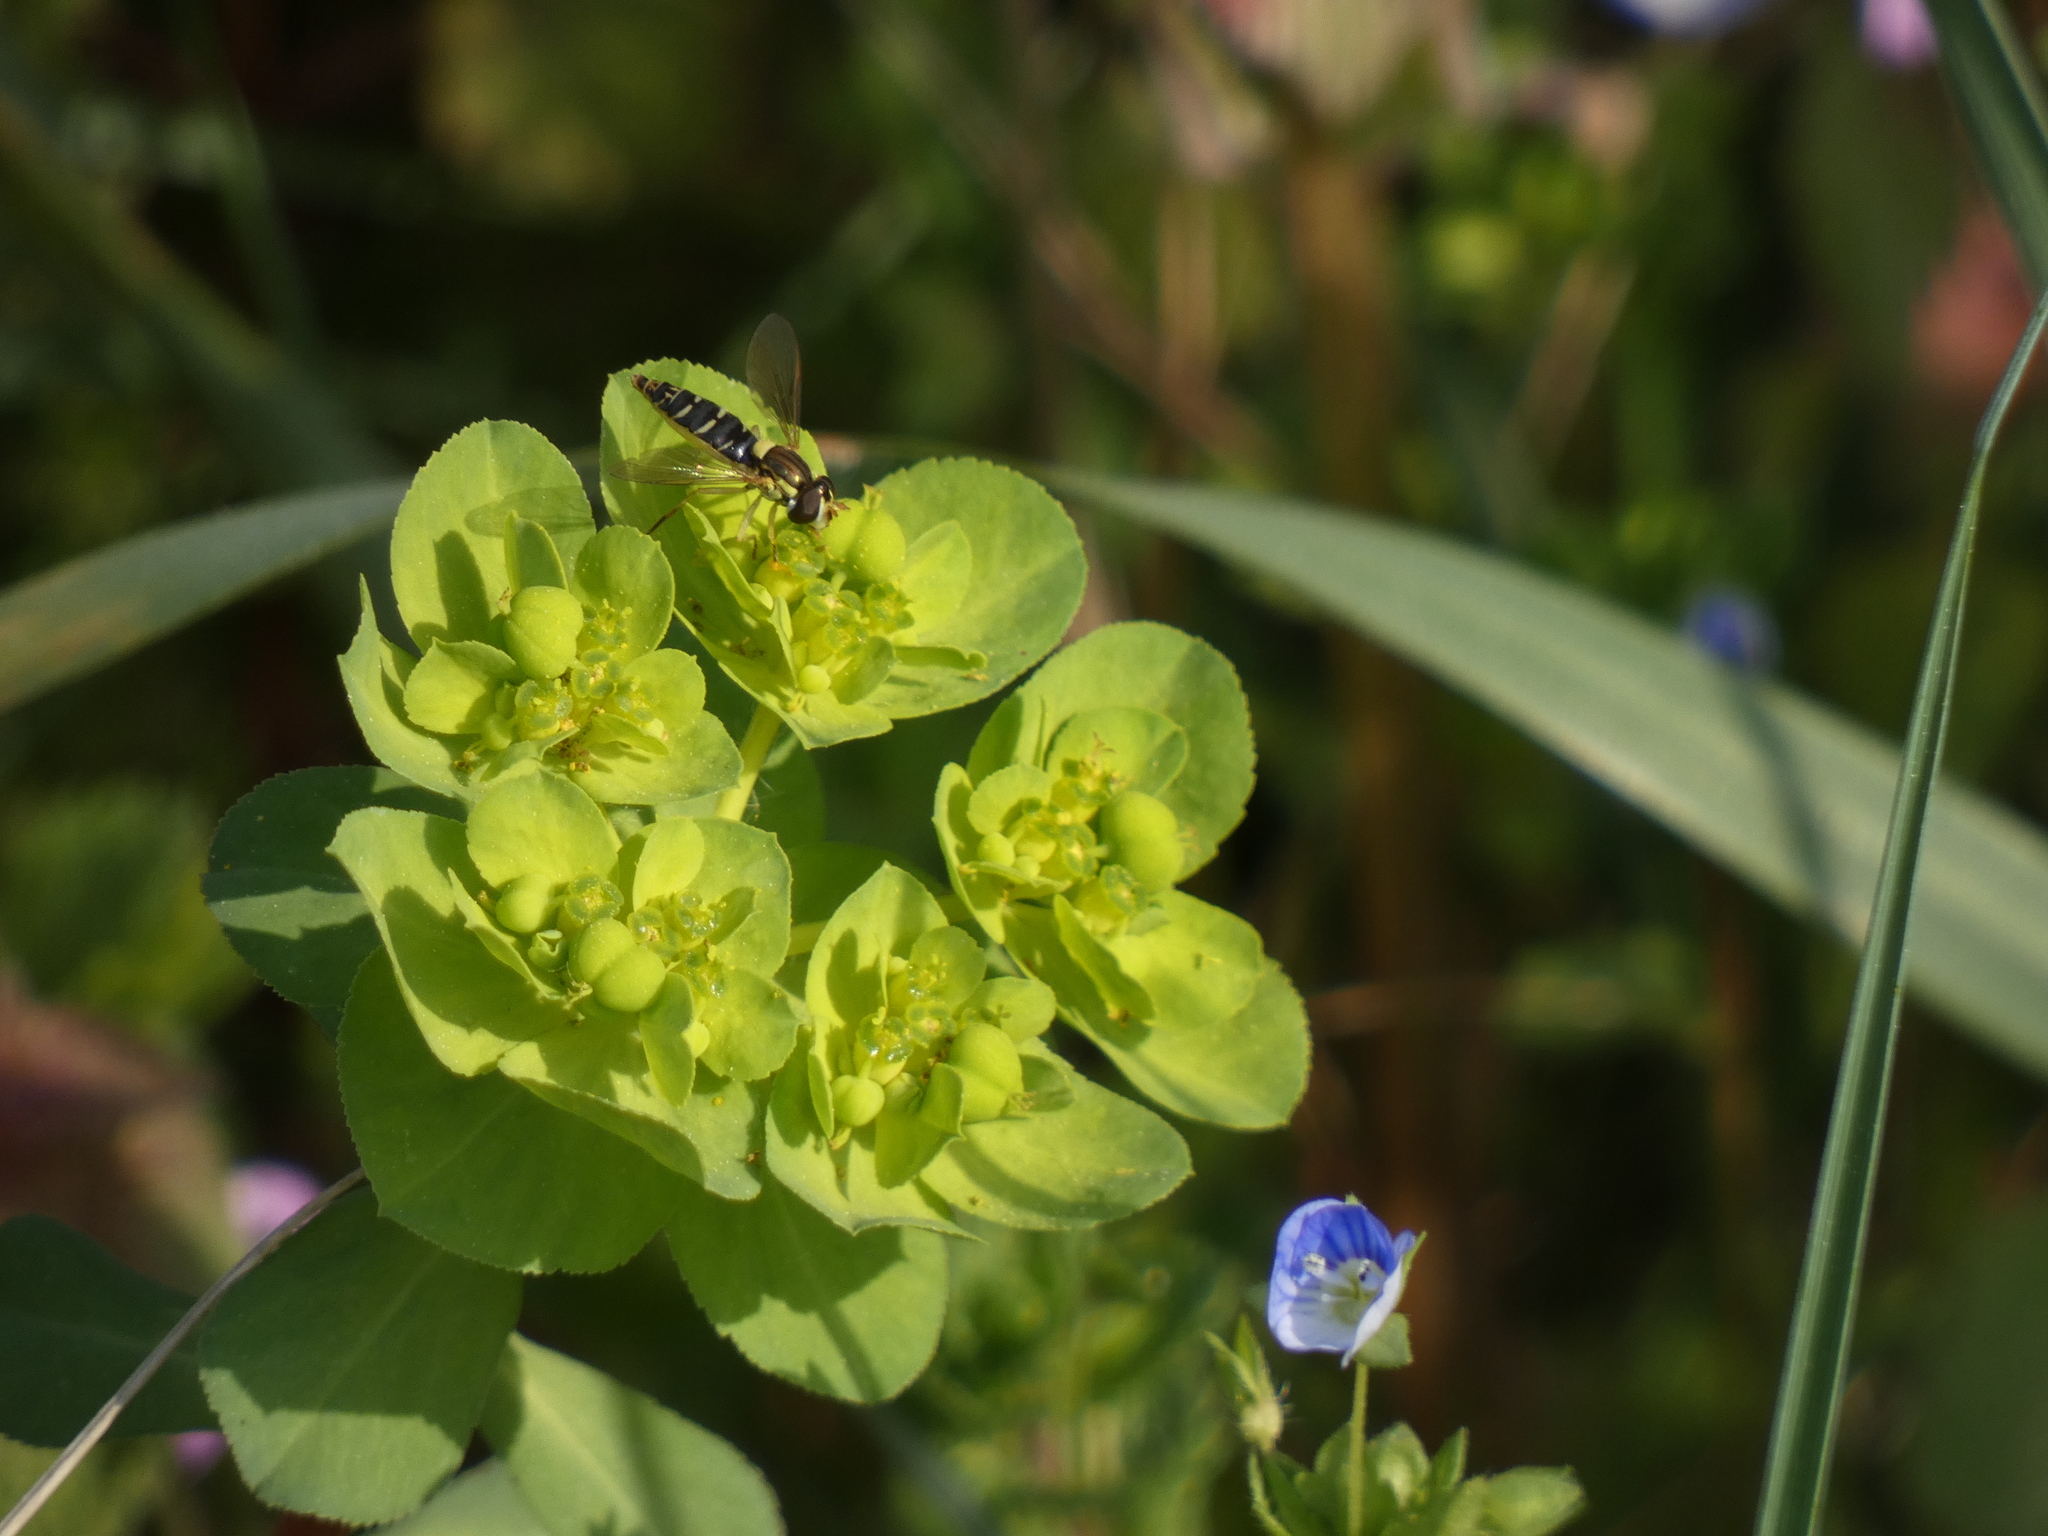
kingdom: Animalia
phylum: Arthropoda
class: Insecta
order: Diptera
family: Syrphidae
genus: Sphaerophoria
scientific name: Sphaerophoria
